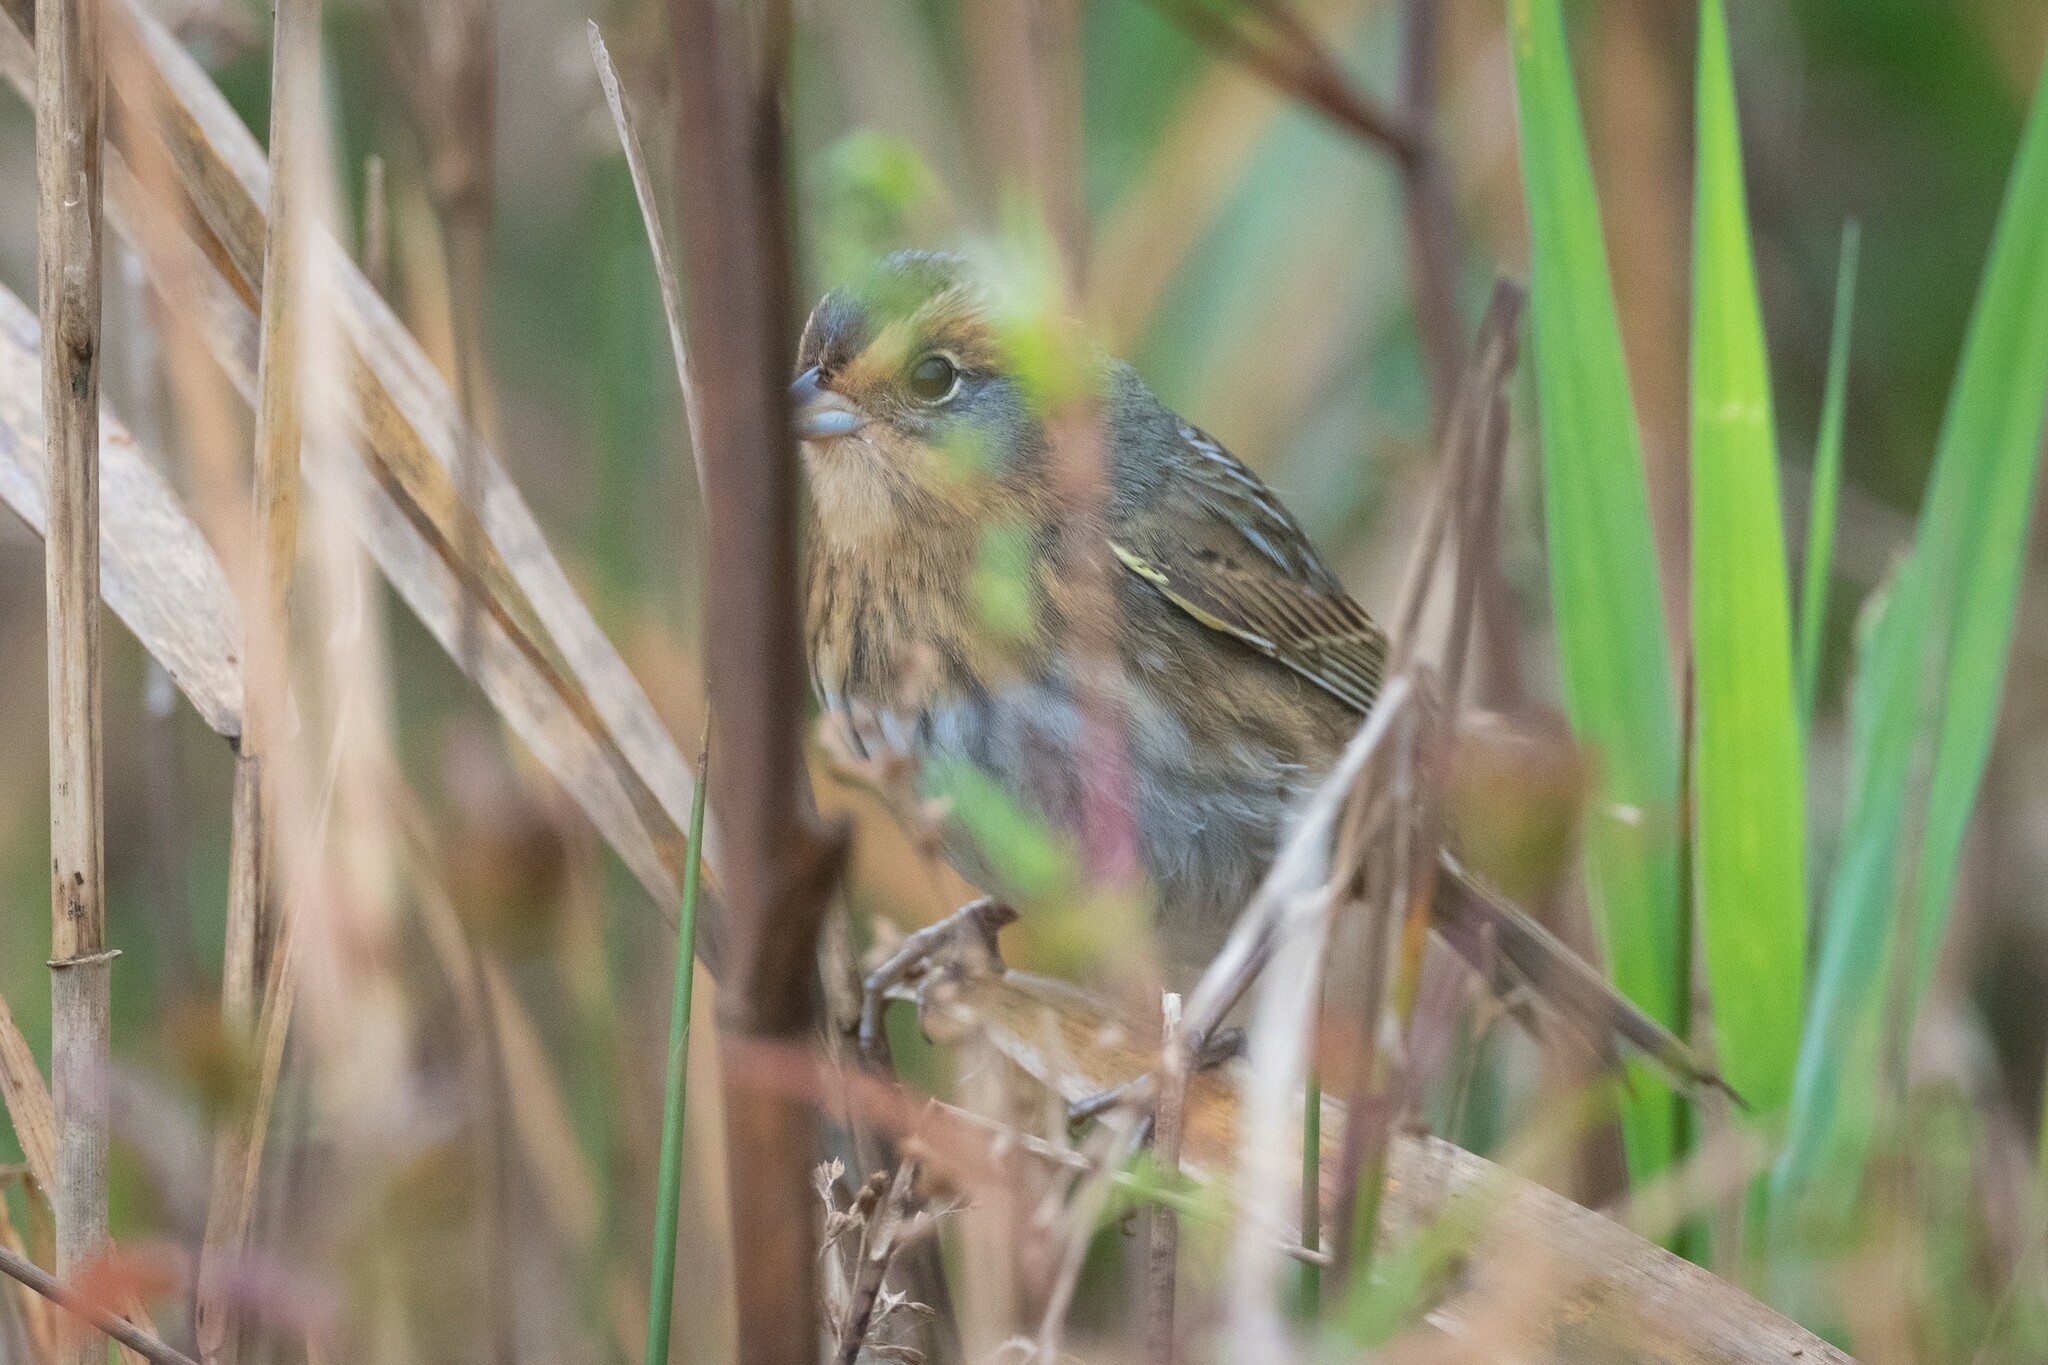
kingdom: Animalia
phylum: Chordata
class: Aves
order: Passeriformes
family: Passerellidae
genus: Ammospiza
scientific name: Ammospiza nelsoni
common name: Nelson's sparrow
